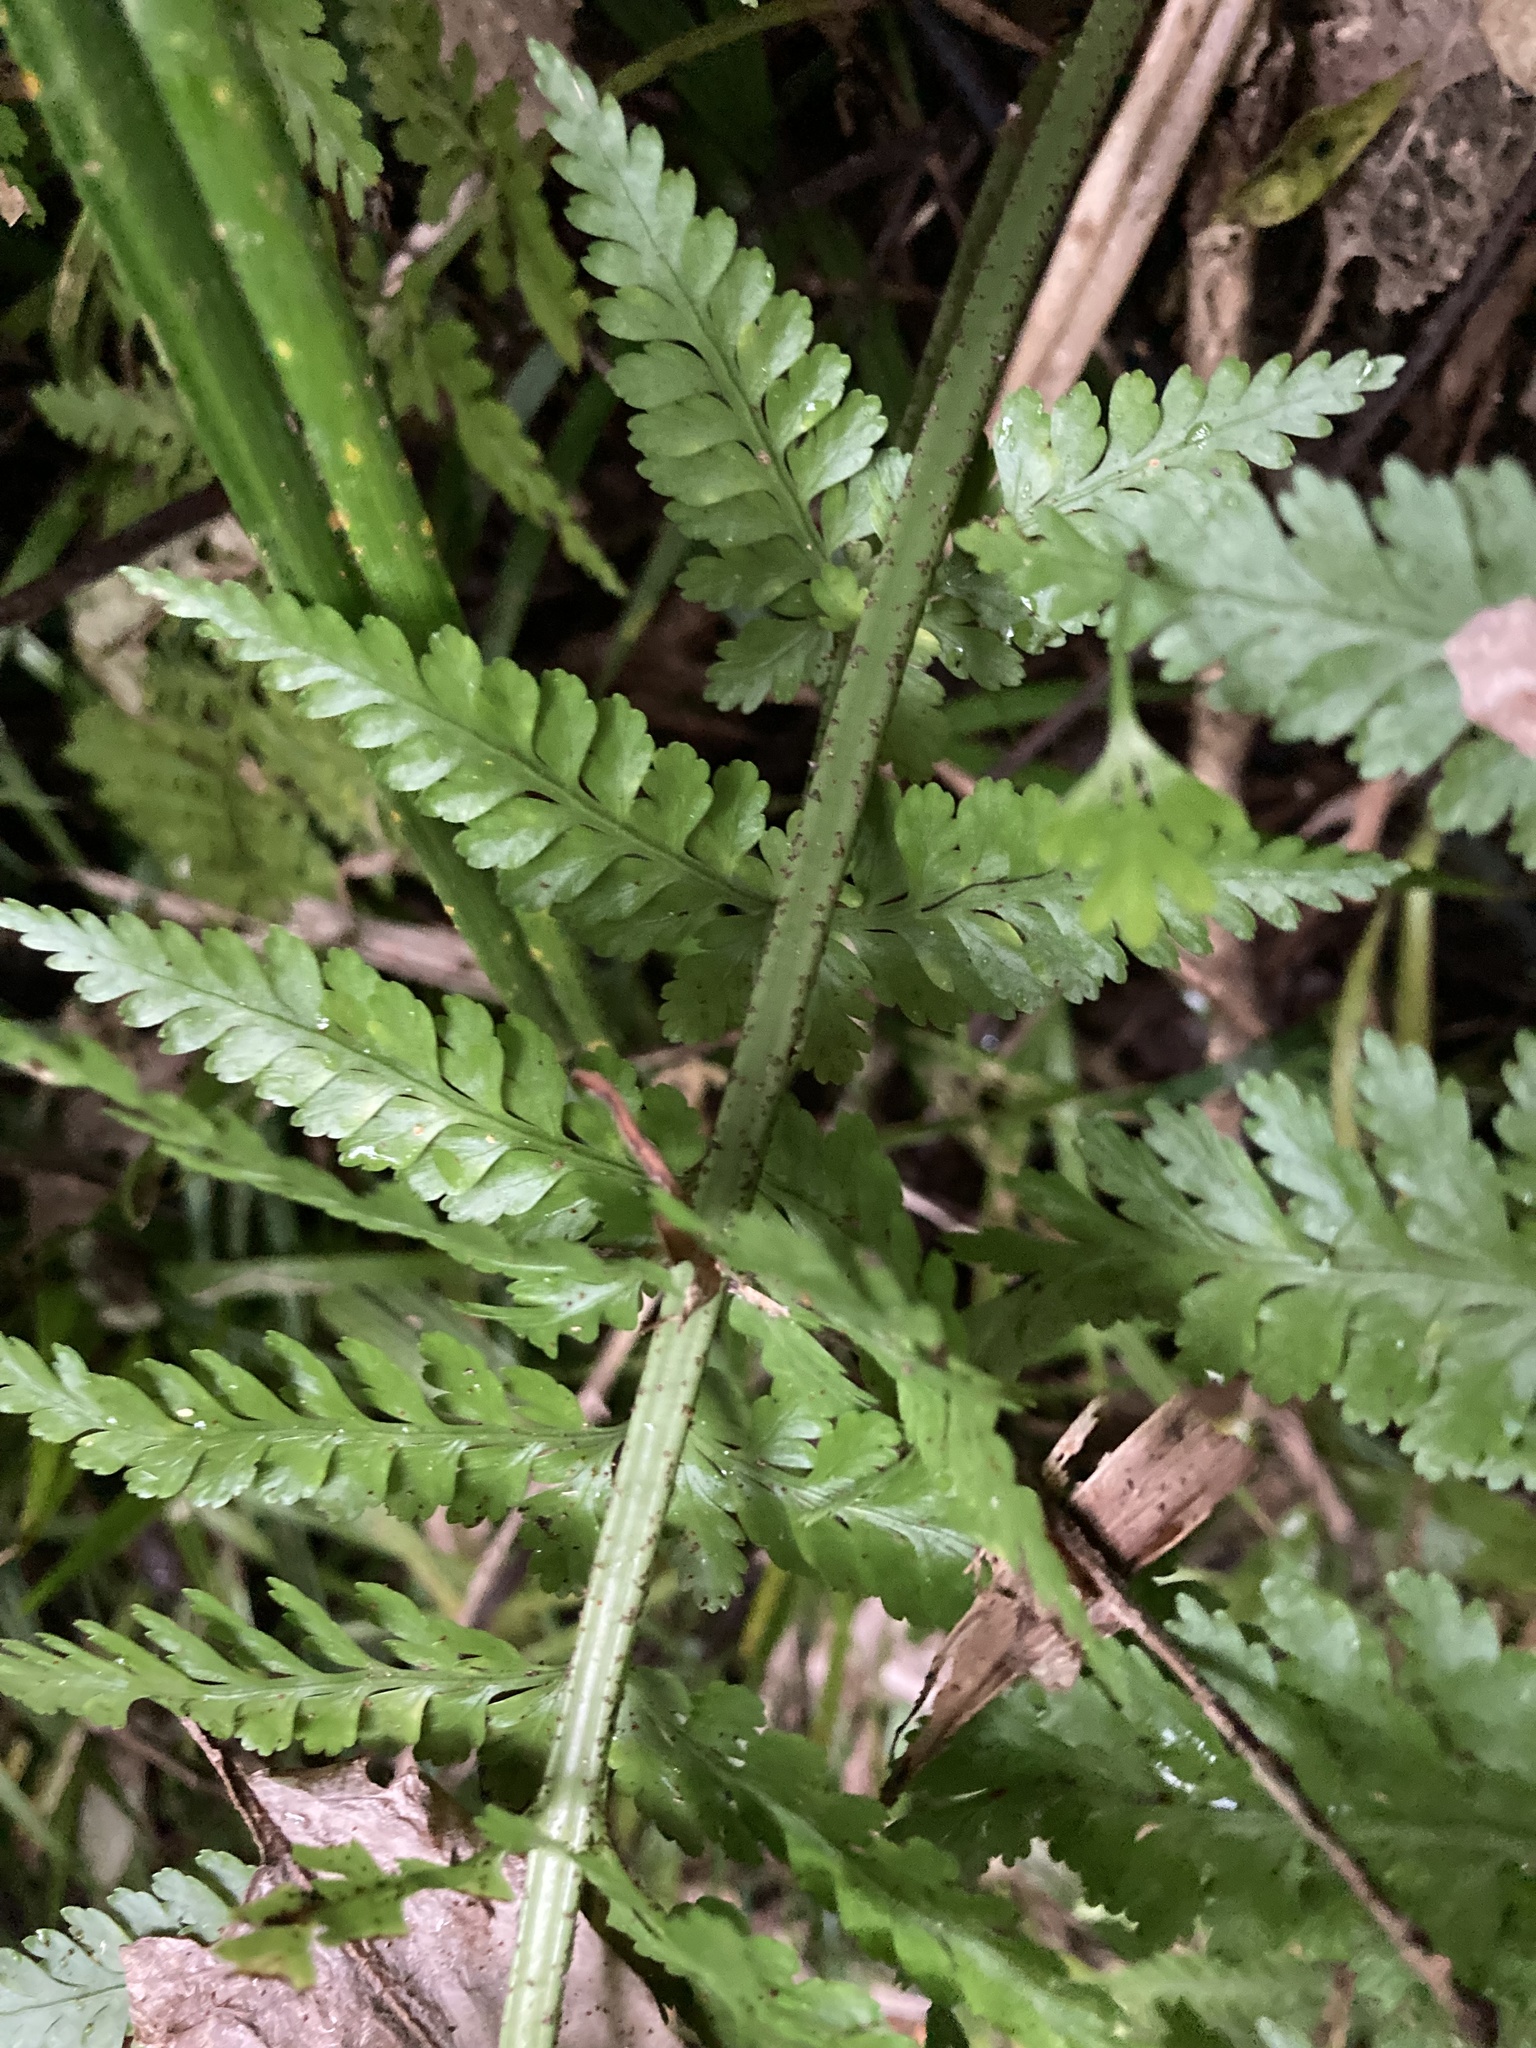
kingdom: Plantae
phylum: Tracheophyta
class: Polypodiopsida
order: Polypodiales
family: Aspleniaceae
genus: Asplenium
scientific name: Asplenium bulbiferum
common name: Mother fern
